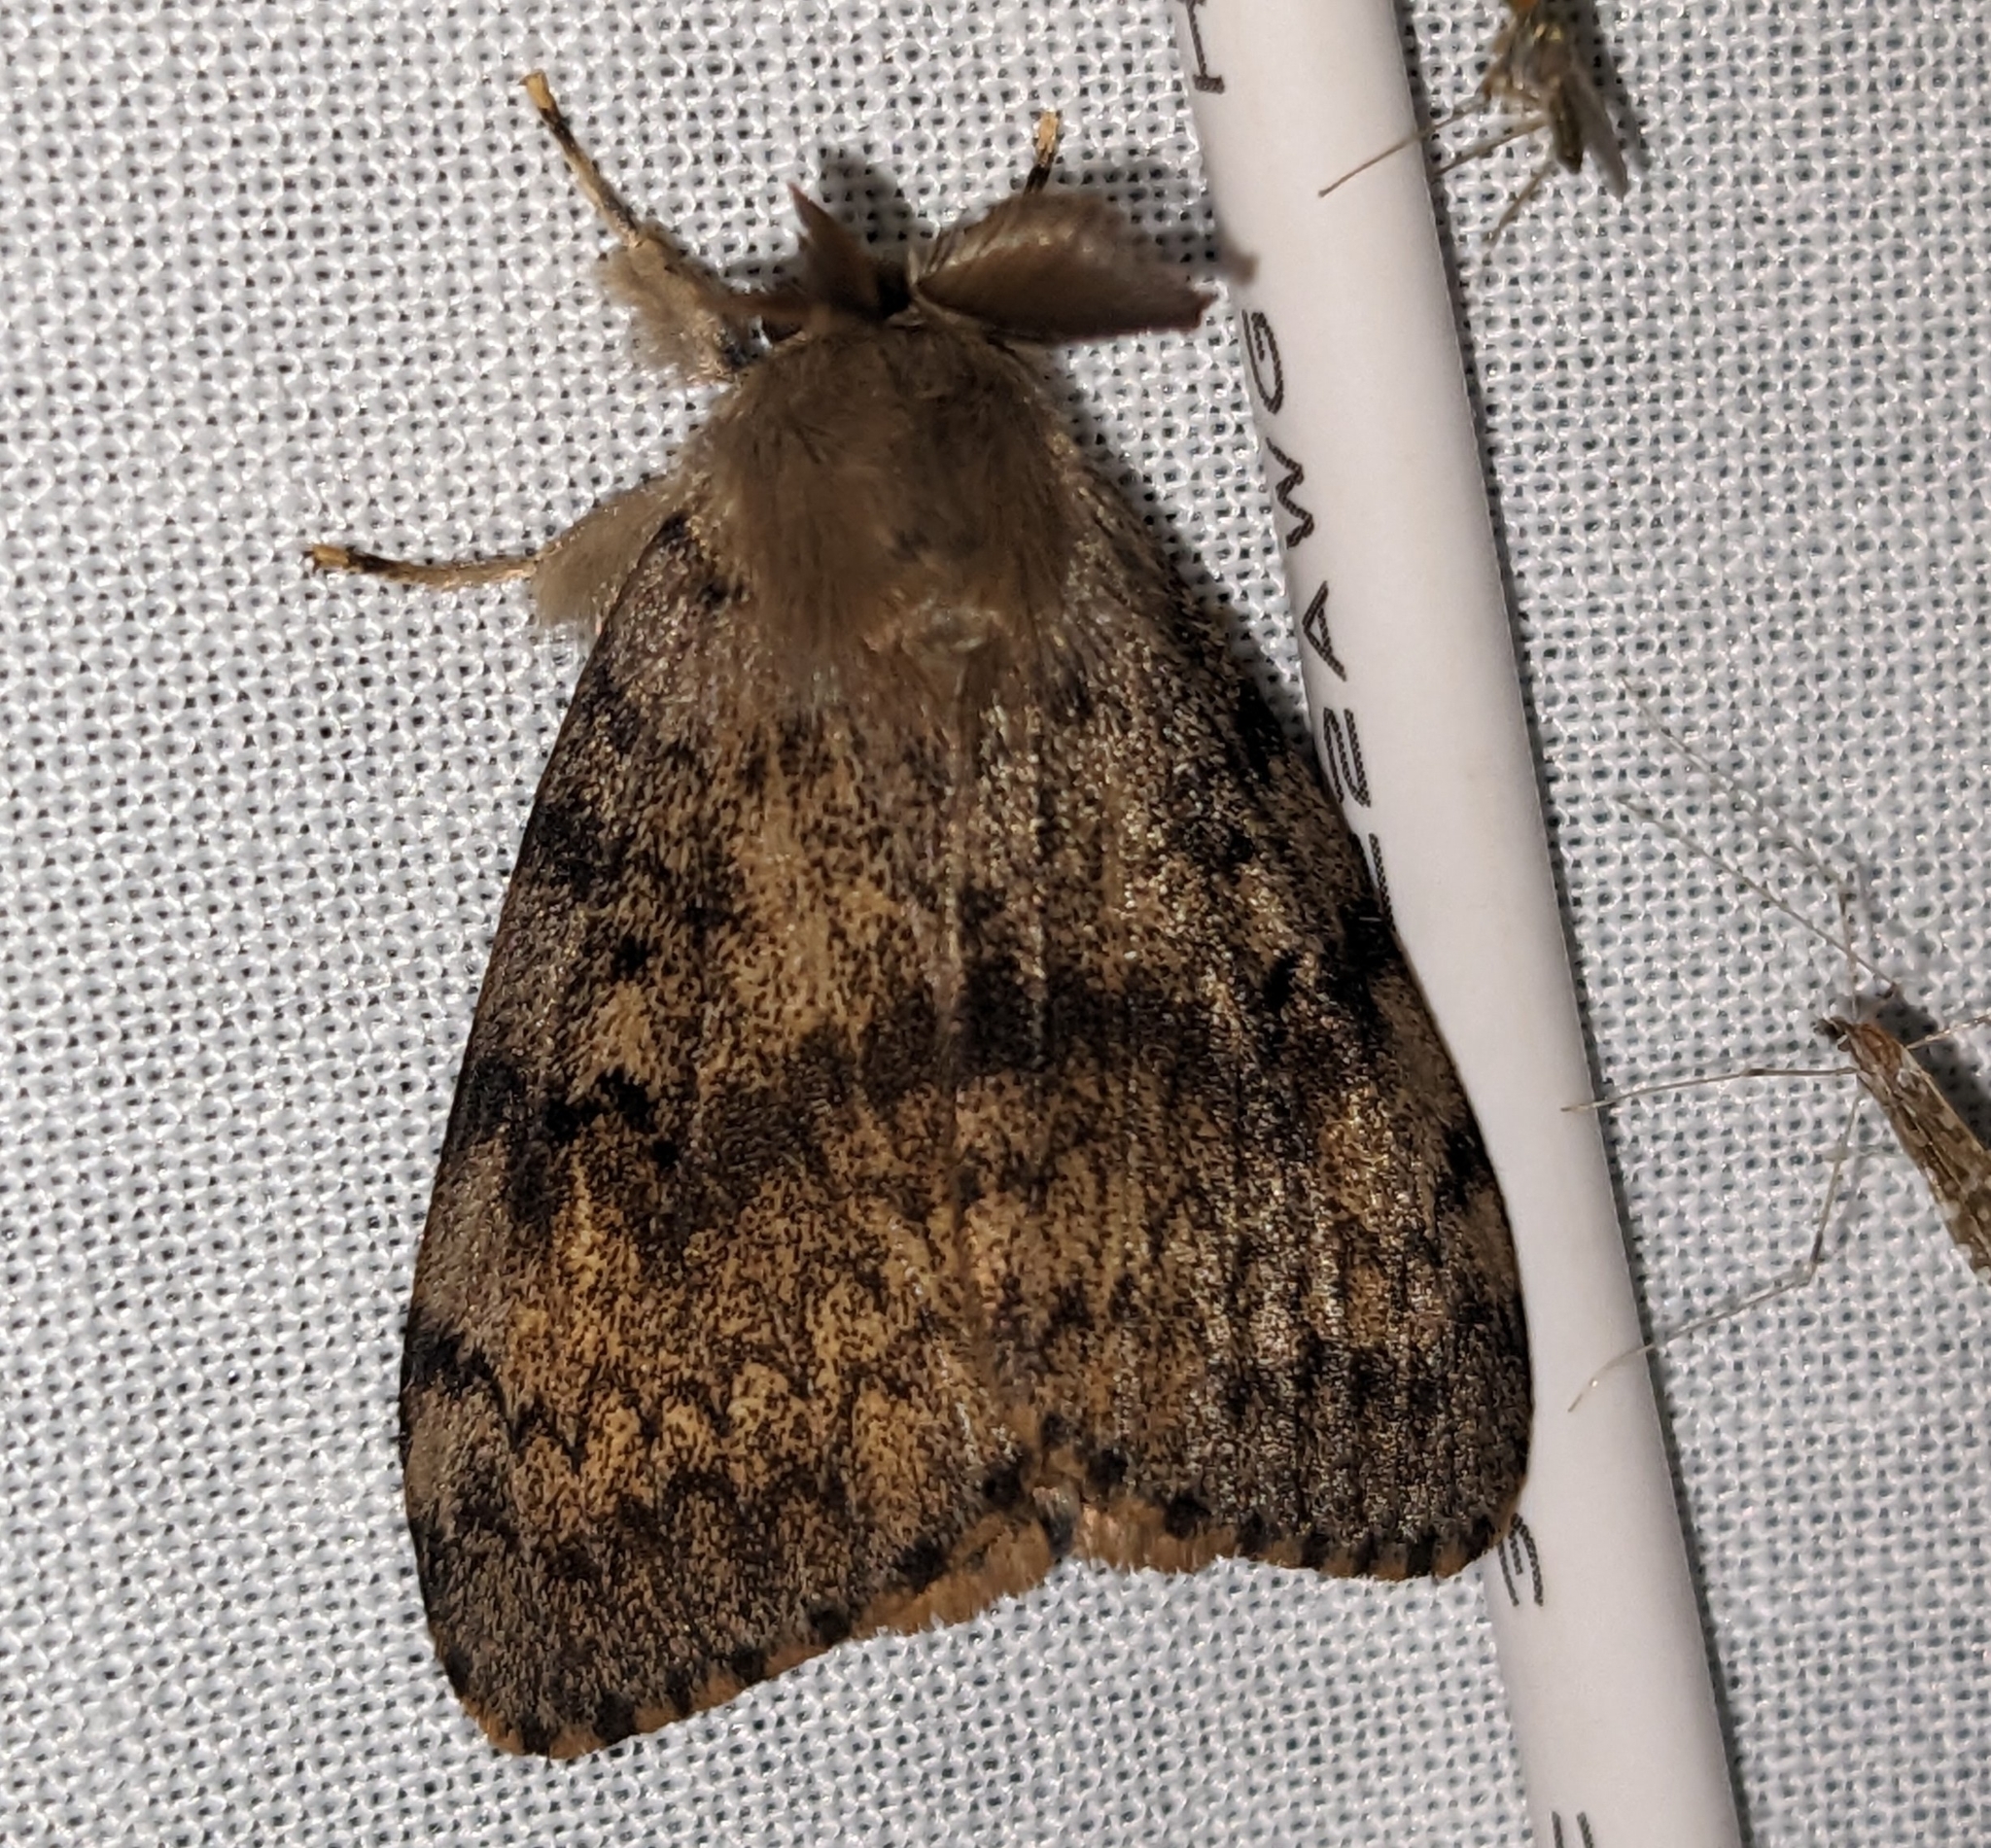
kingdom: Animalia
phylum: Arthropoda
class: Insecta
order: Lepidoptera
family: Erebidae
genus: Lymantria
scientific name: Lymantria dispar
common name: Gypsy moth
